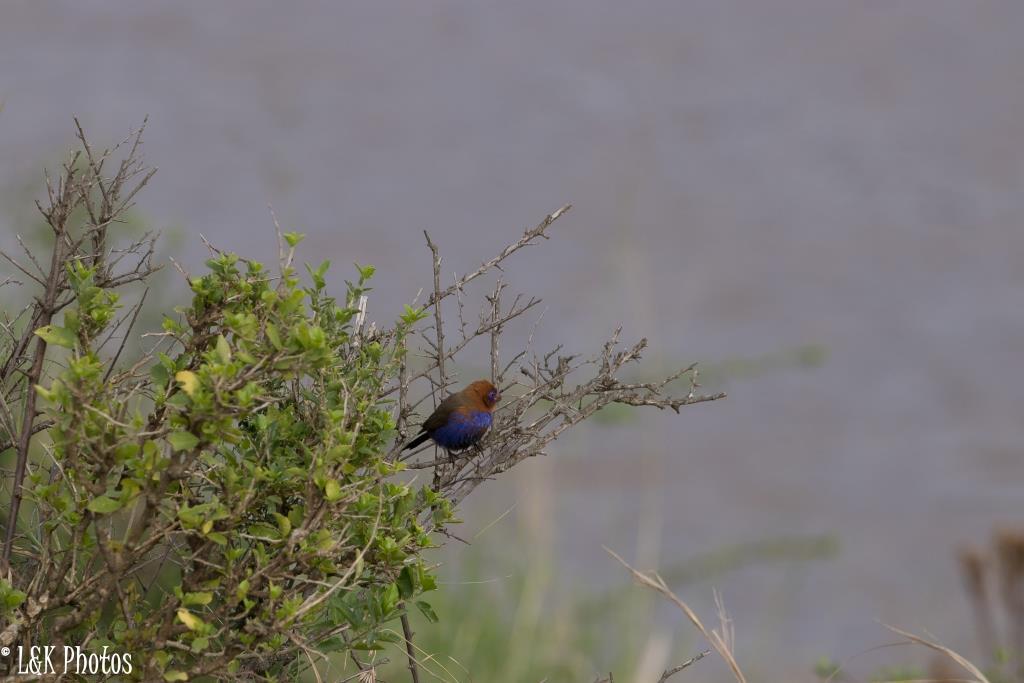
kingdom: Animalia
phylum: Chordata
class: Aves
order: Passeriformes
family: Estrildidae
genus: Uraeginthus
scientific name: Uraeginthus ianthinogaster
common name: Purple grenadier
